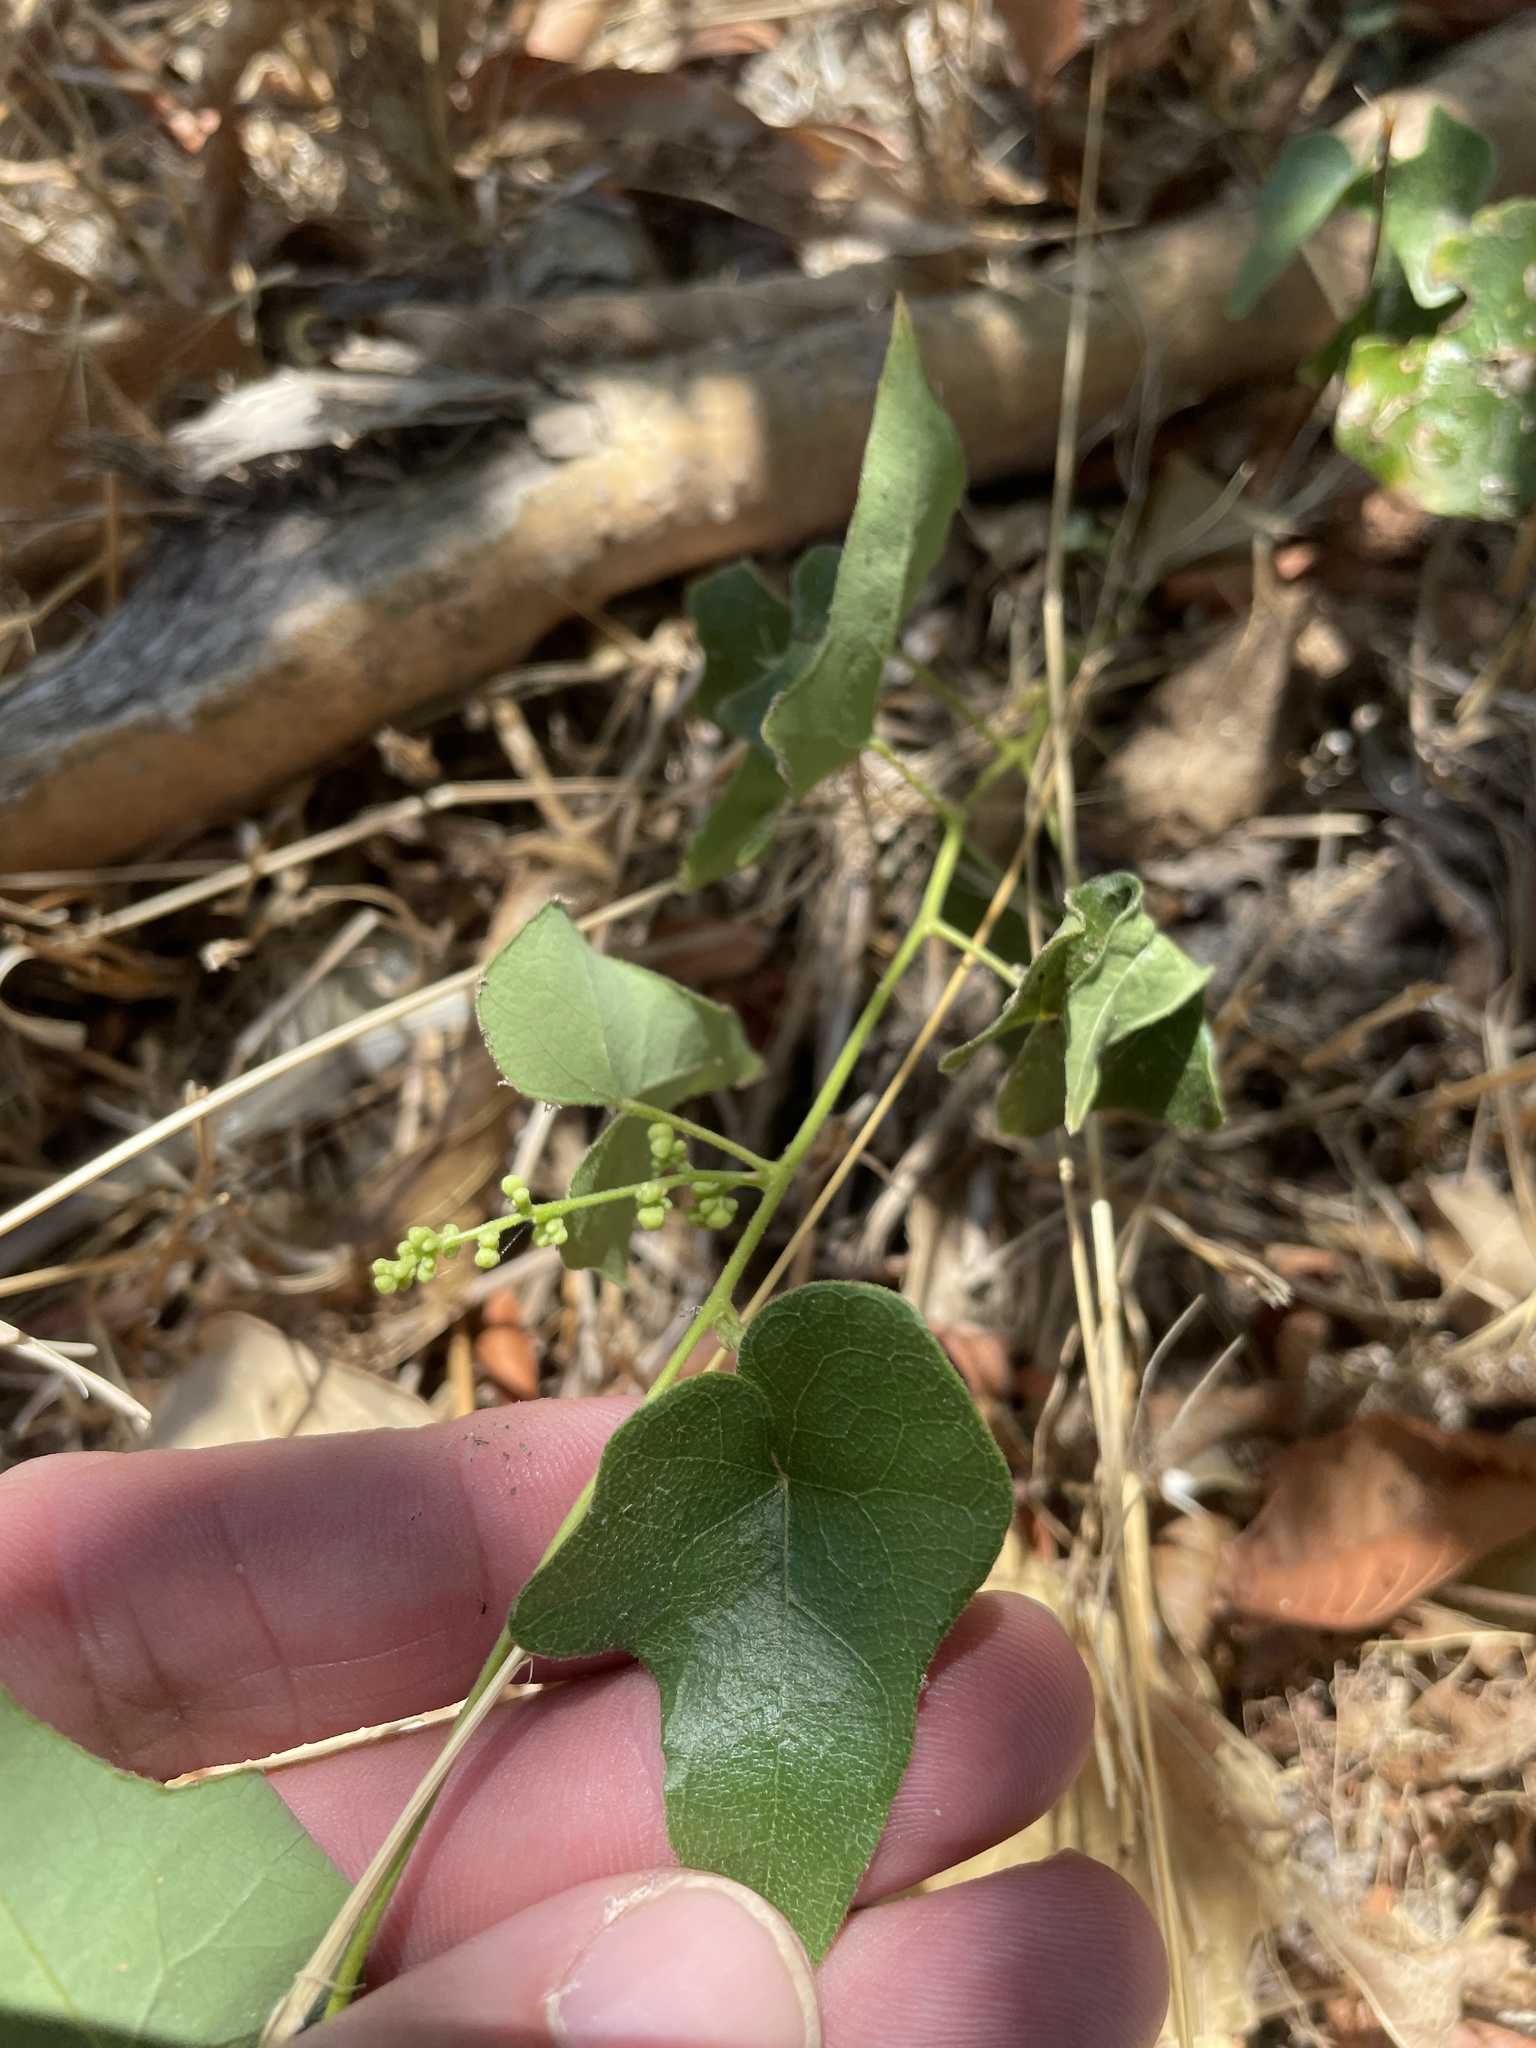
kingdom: Plantae
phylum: Tracheophyta
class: Magnoliopsida
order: Ranunculales
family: Menispermaceae
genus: Cocculus
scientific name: Cocculus carolinus
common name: Carolina moonseed
